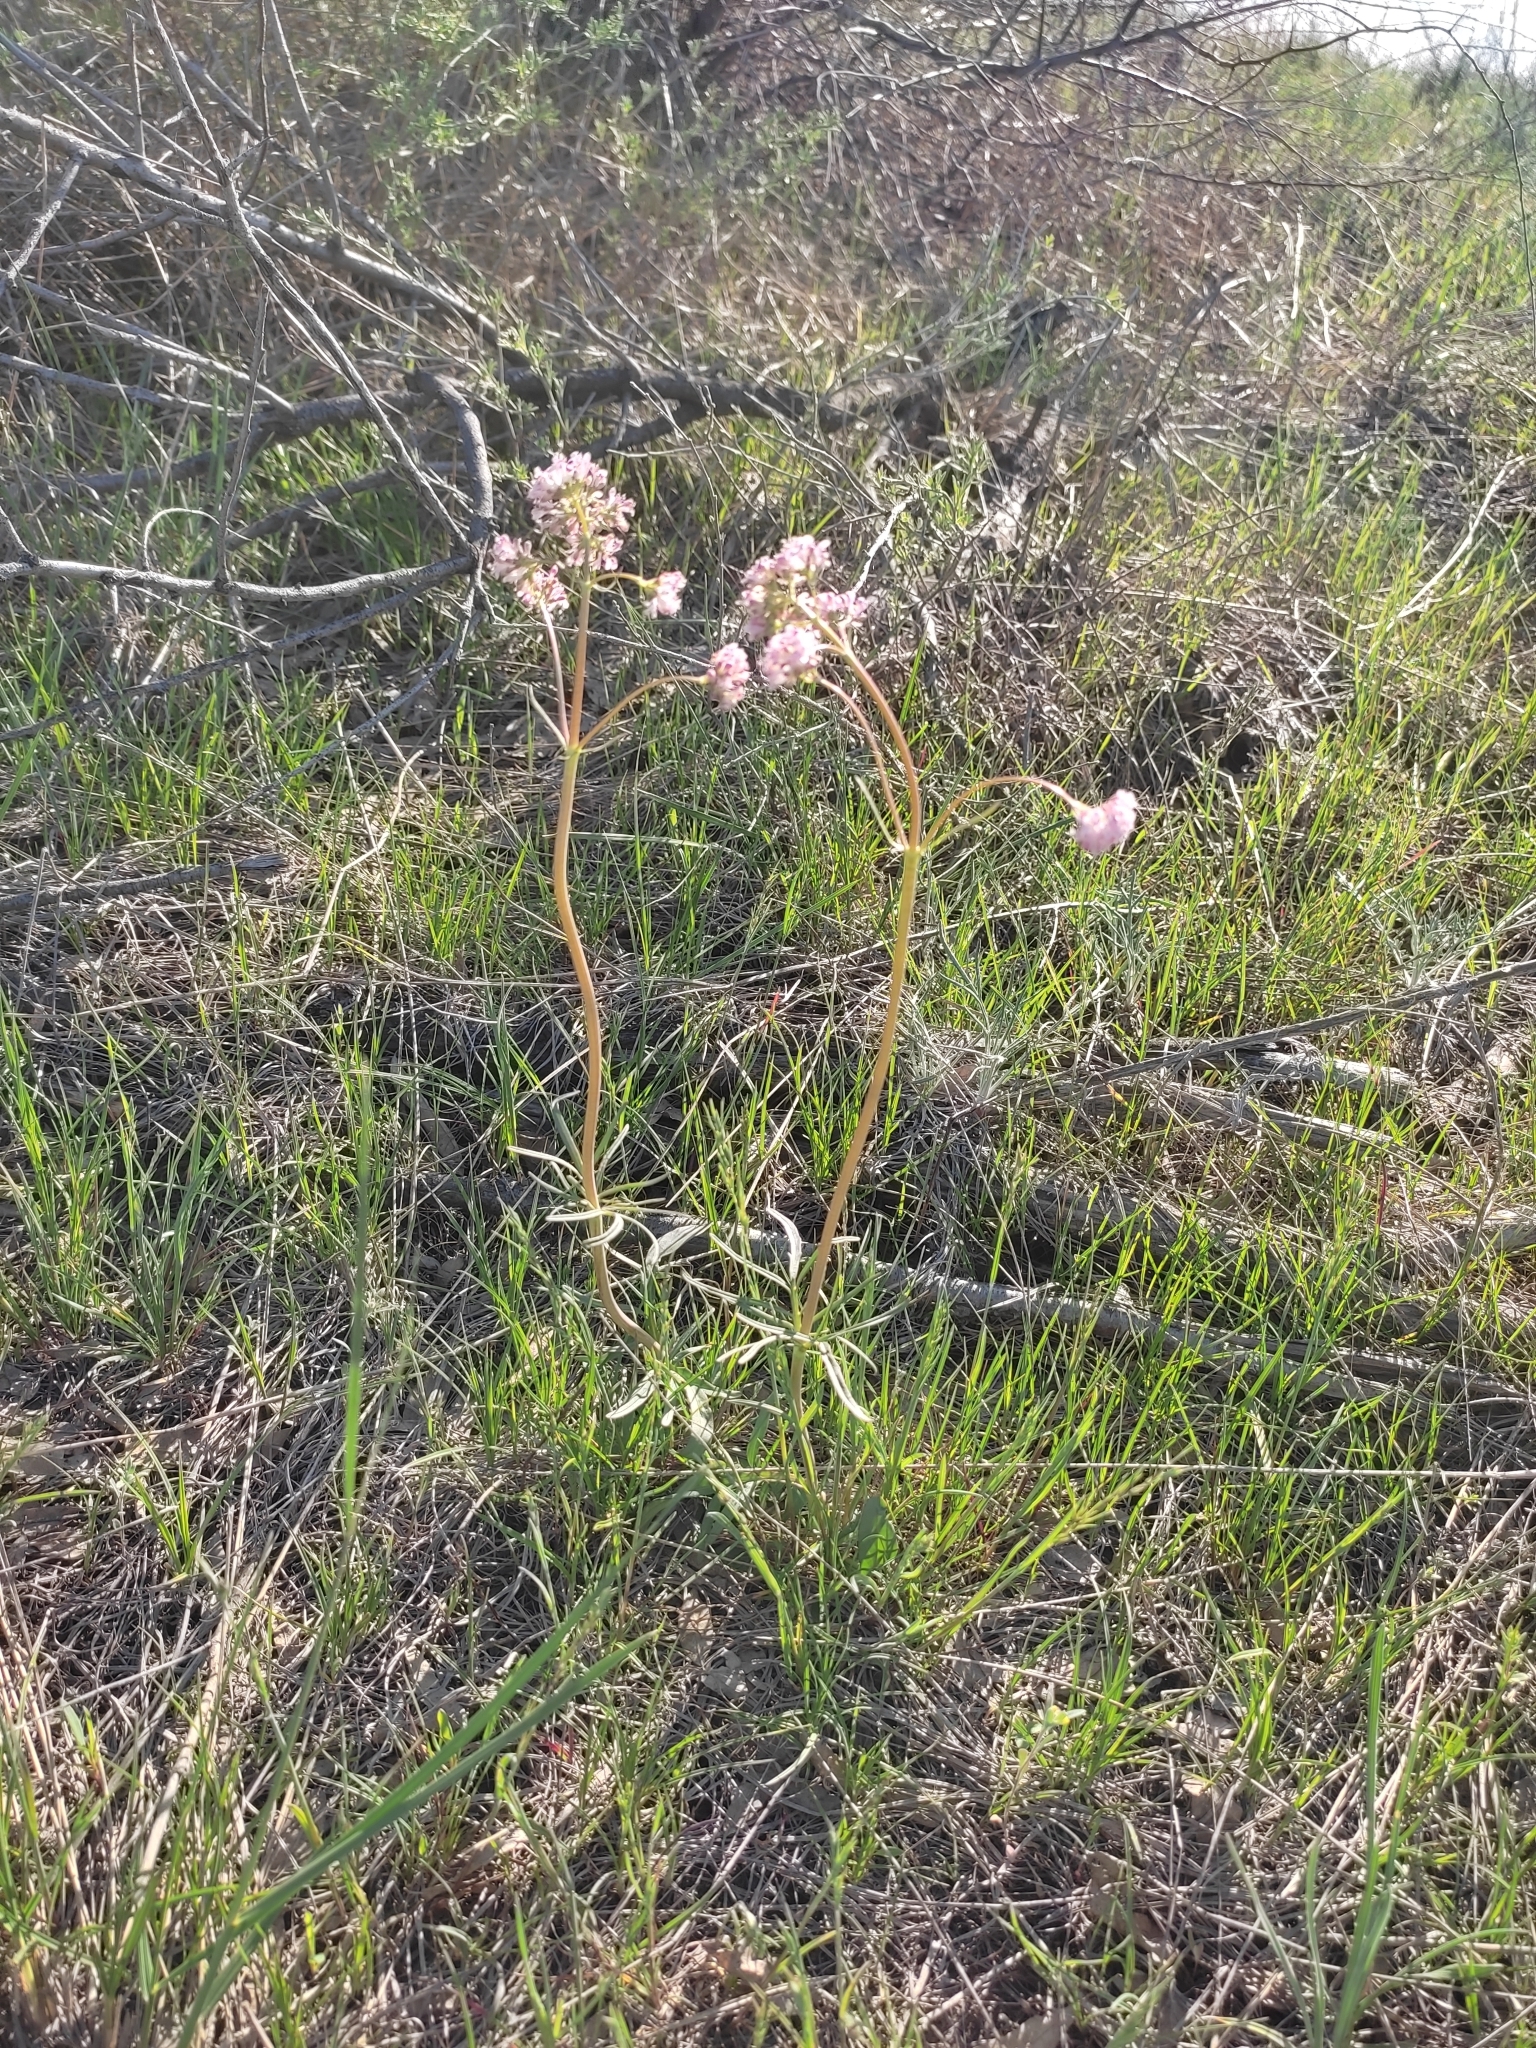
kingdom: Plantae
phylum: Tracheophyta
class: Magnoliopsida
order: Dipsacales
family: Caprifoliaceae
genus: Valeriana
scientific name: Valeriana tuberosa
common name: Tuberous valerian
